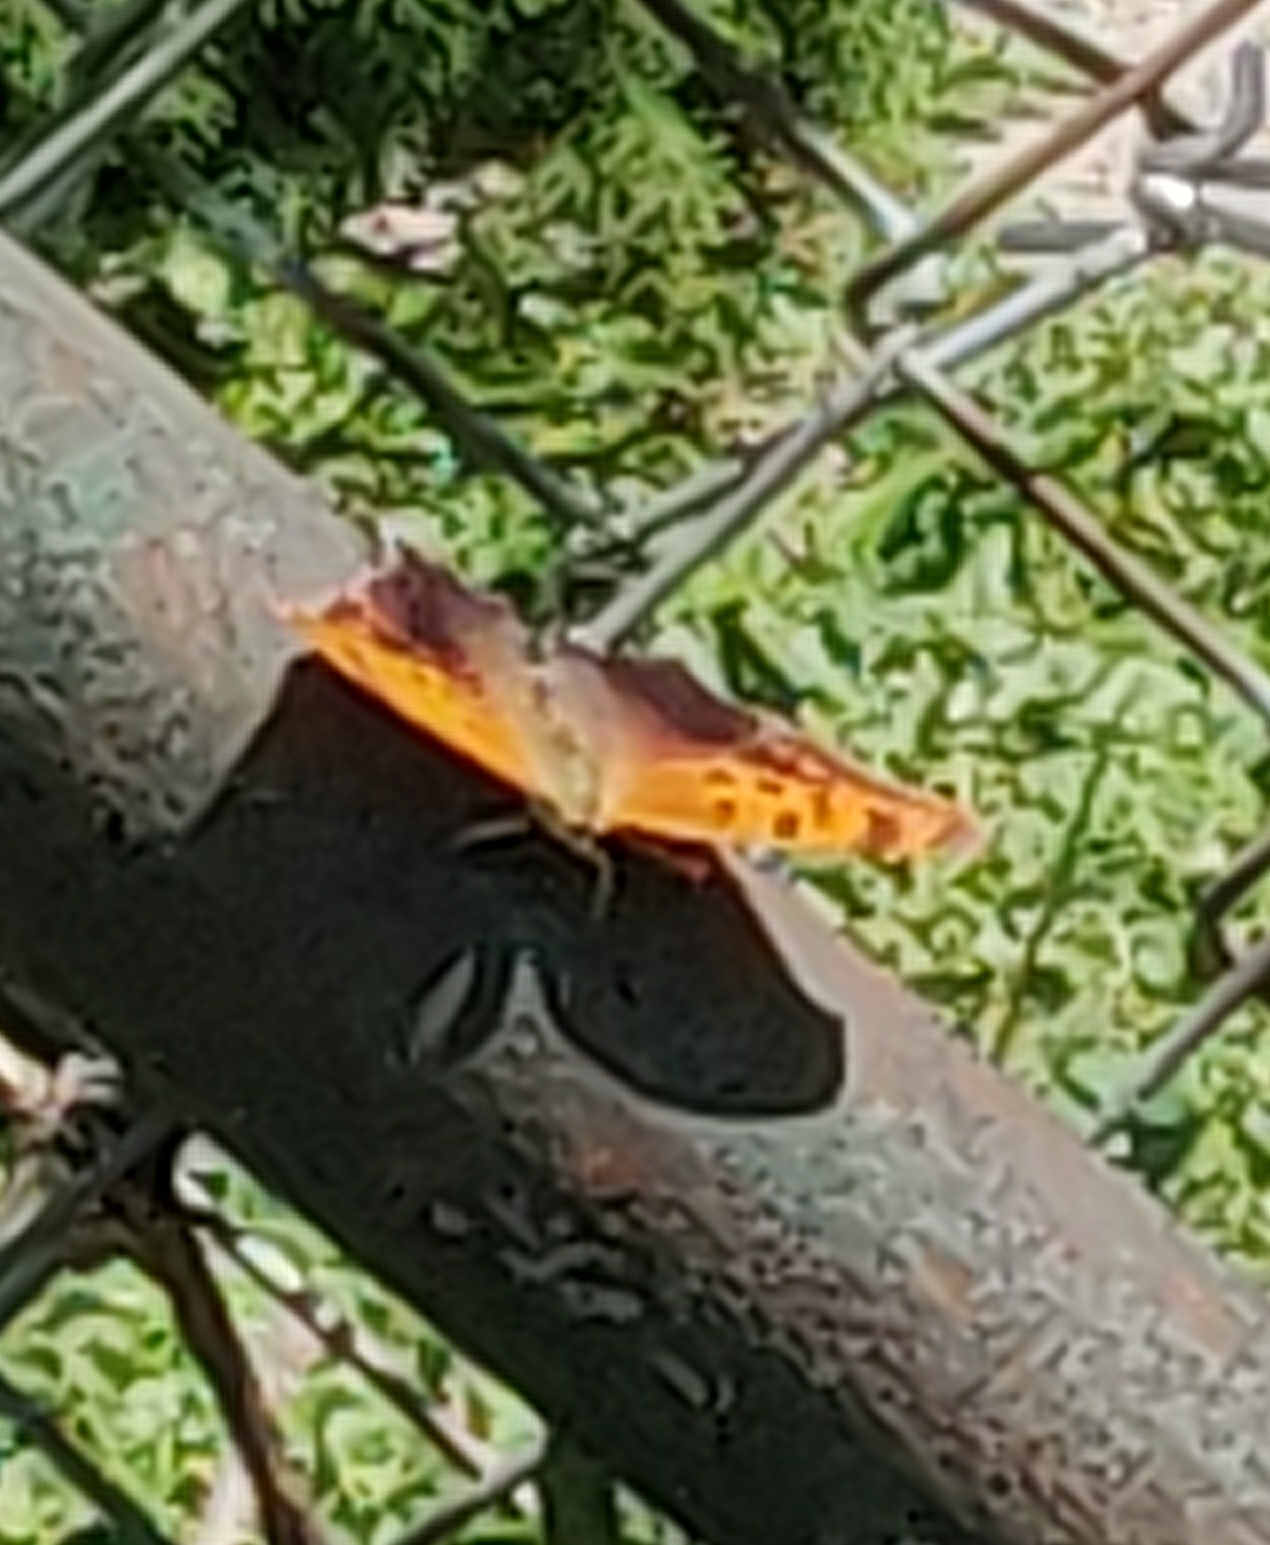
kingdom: Animalia
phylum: Arthropoda
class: Insecta
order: Lepidoptera
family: Nymphalidae
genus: Polygonia
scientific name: Polygonia interrogationis
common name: Question mark
